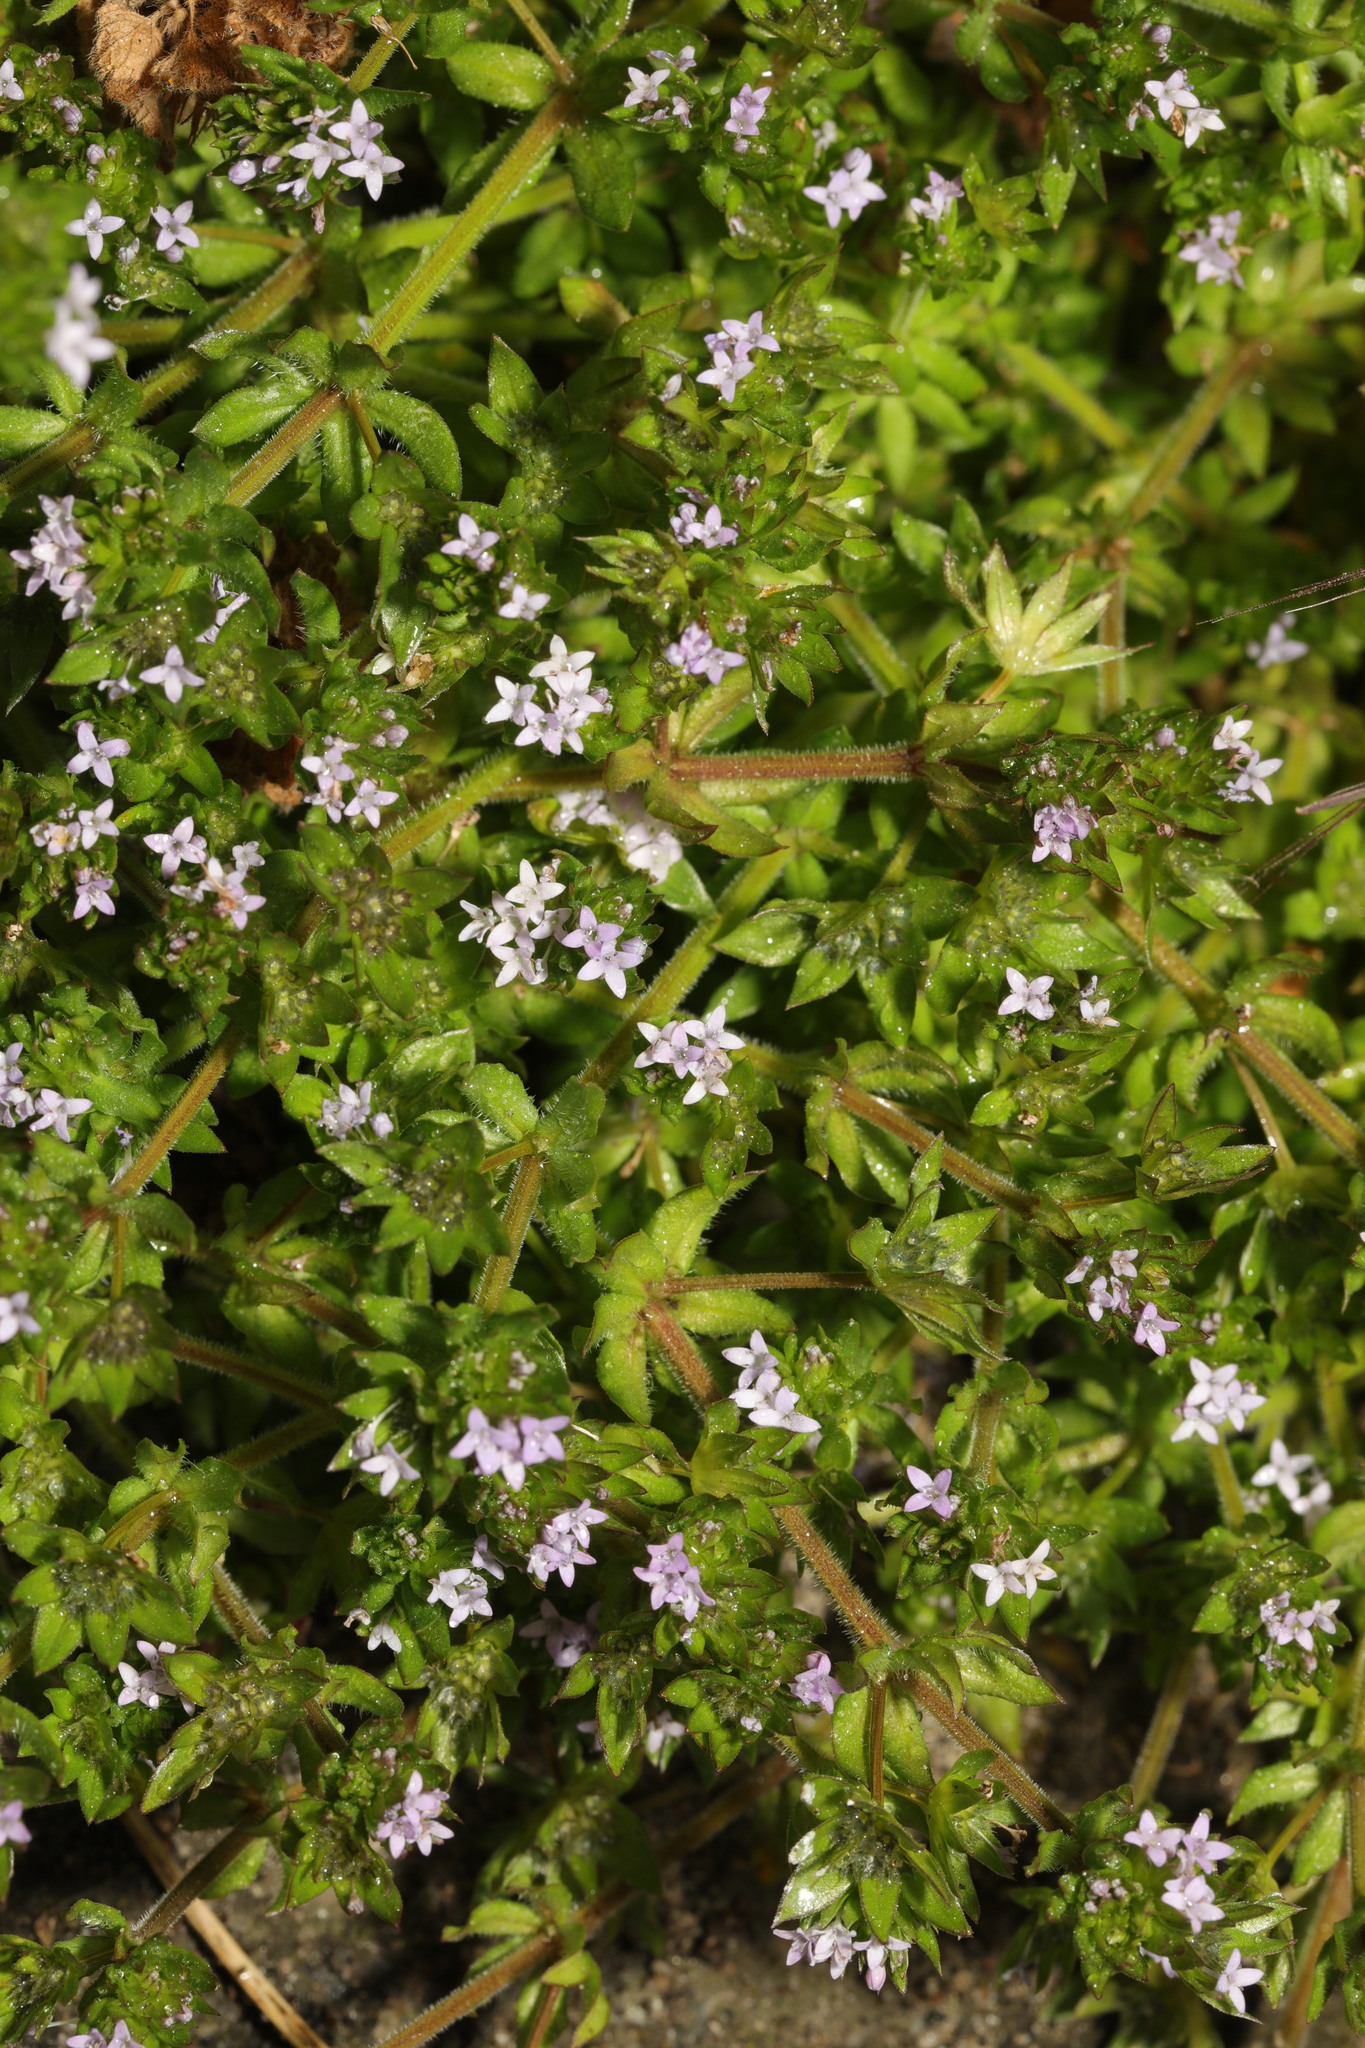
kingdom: Plantae
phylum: Tracheophyta
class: Magnoliopsida
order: Gentianales
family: Rubiaceae
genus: Sherardia
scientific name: Sherardia arvensis
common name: Field madder
